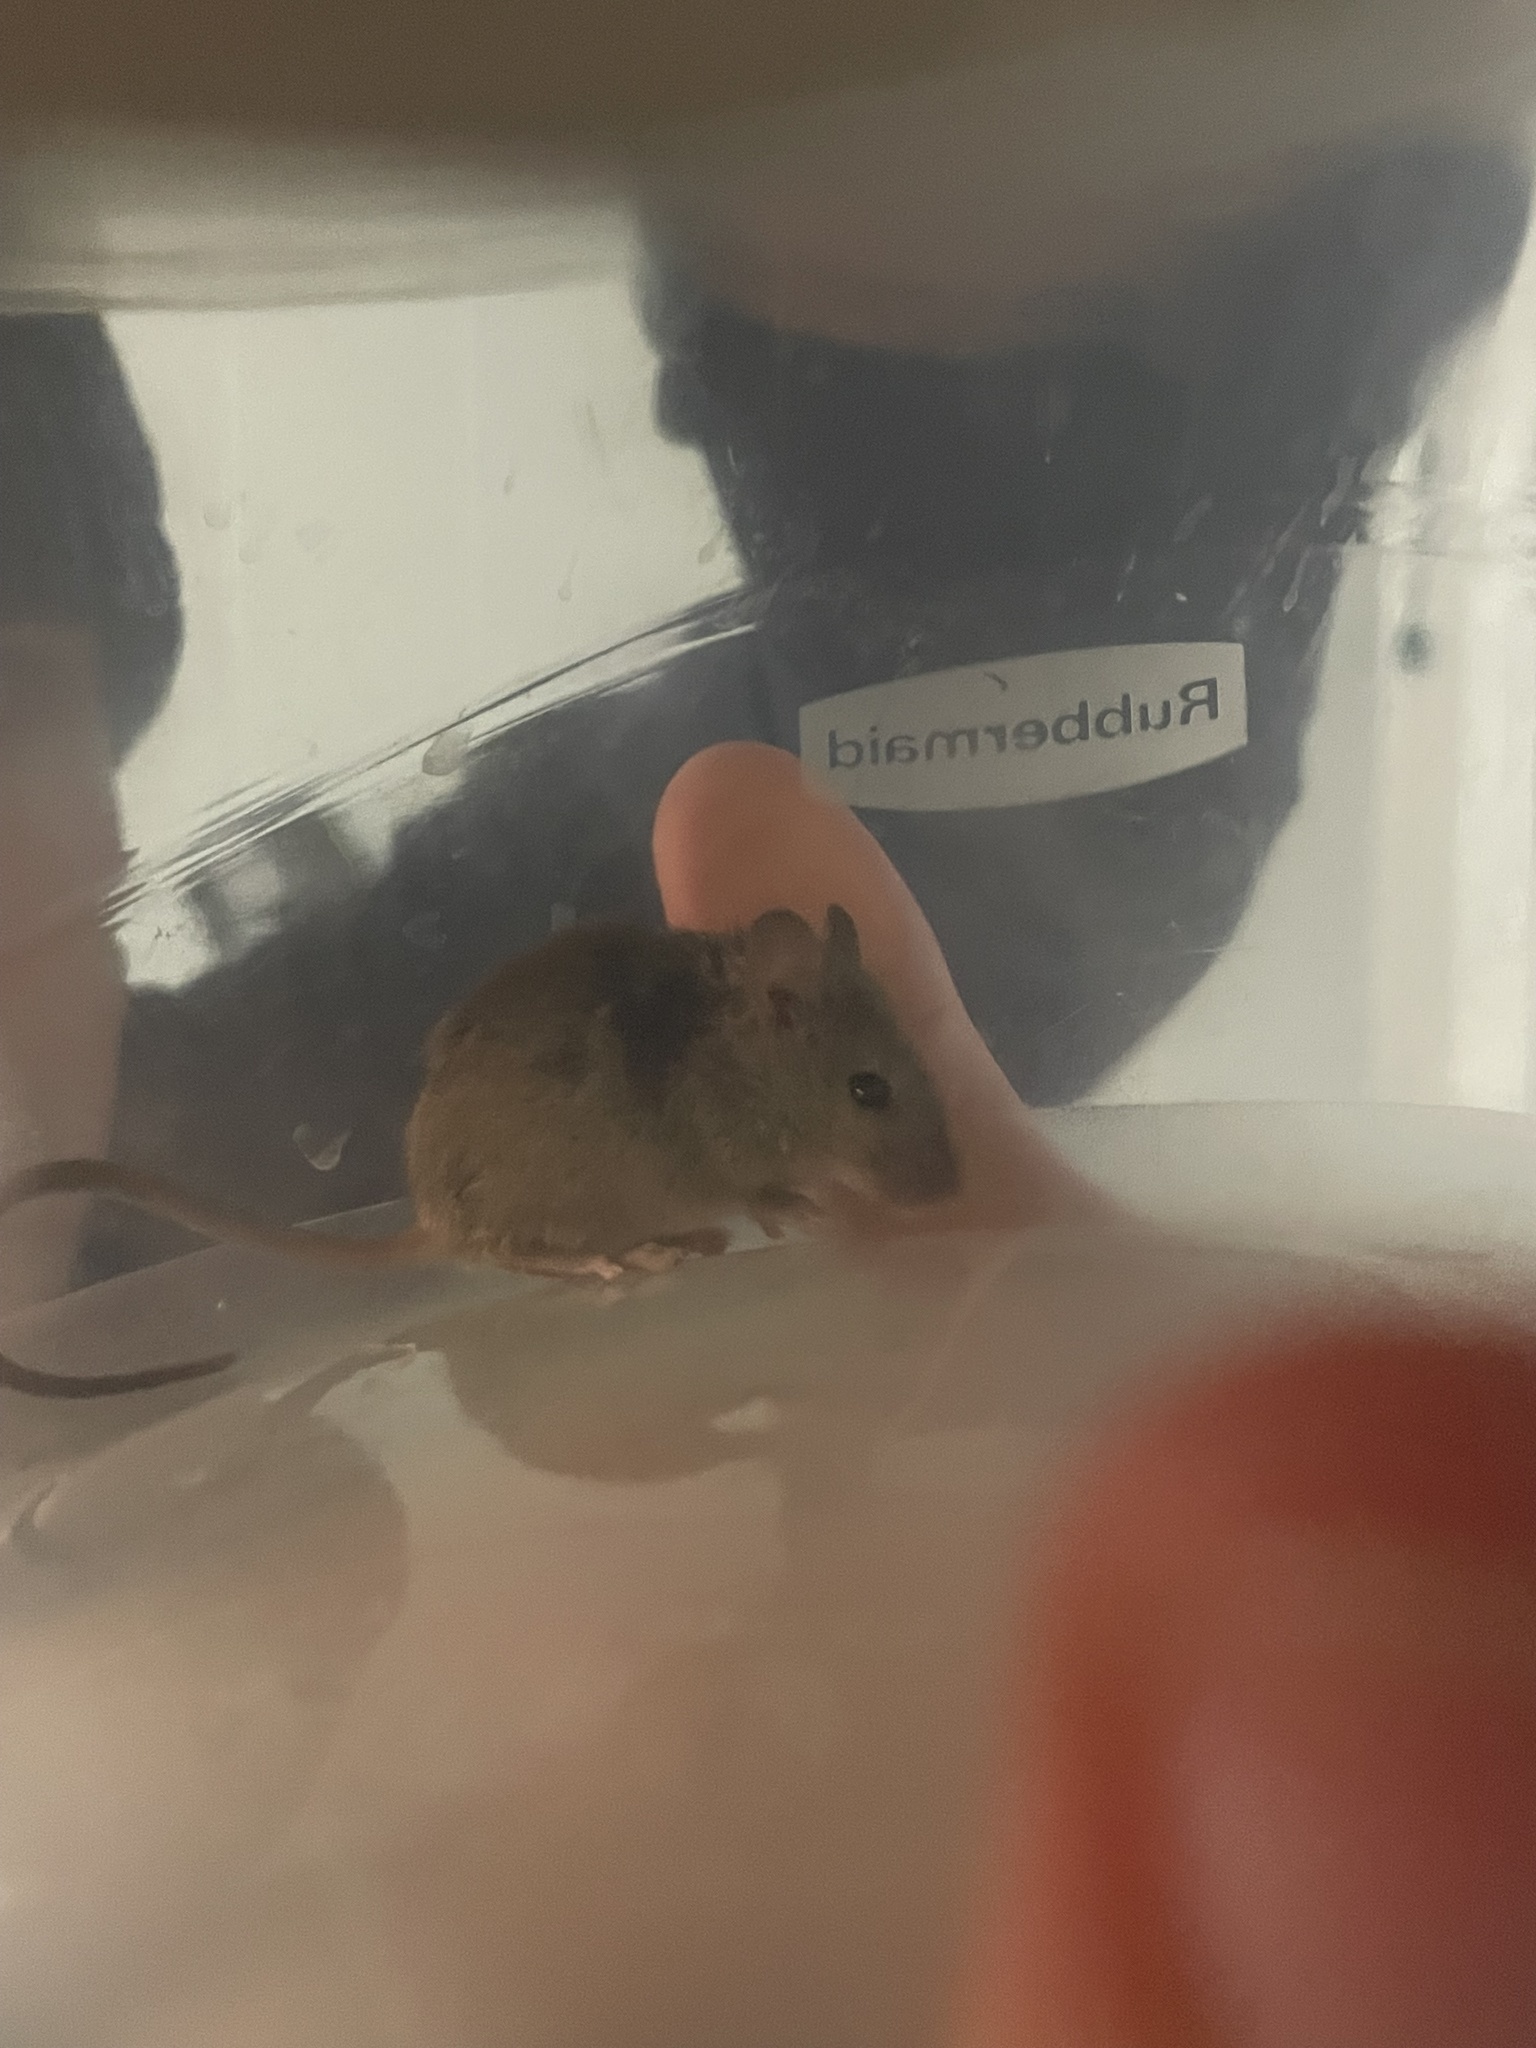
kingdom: Animalia
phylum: Chordata
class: Mammalia
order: Rodentia
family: Muridae
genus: Mus
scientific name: Mus musculus
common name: House mouse
